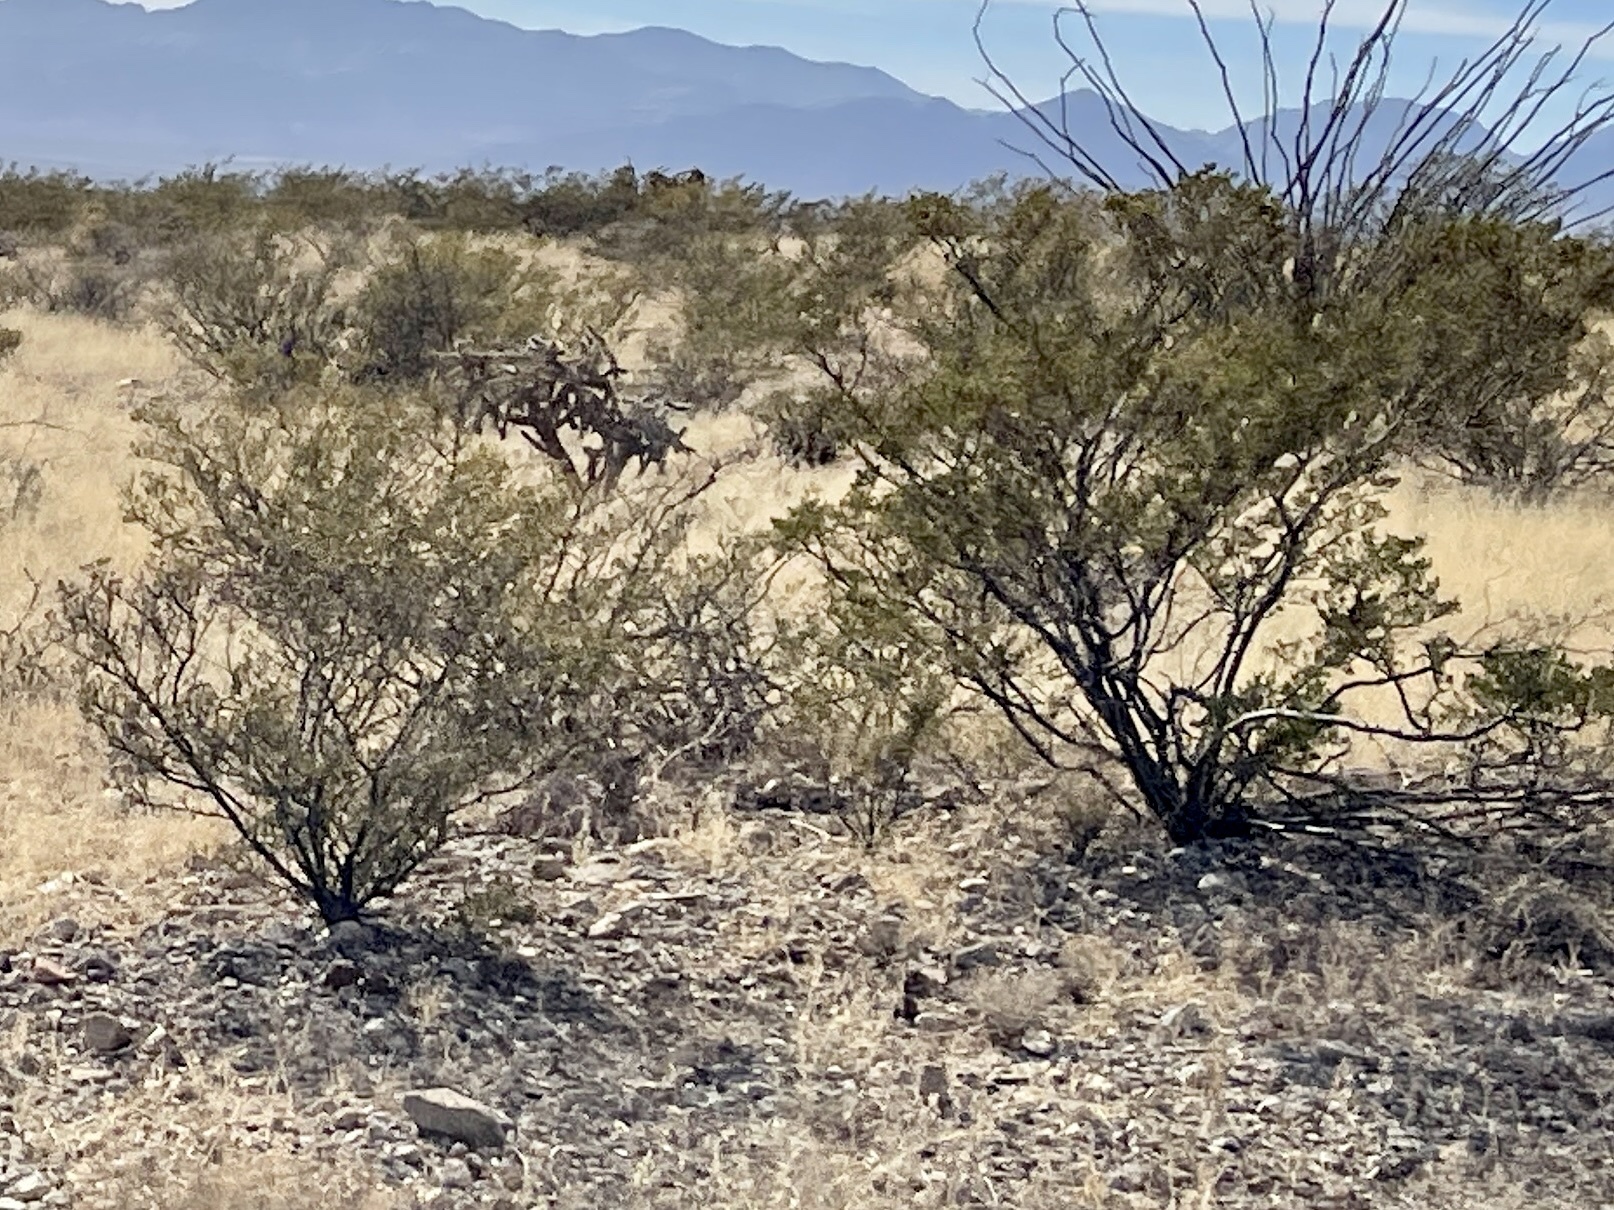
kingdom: Plantae
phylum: Tracheophyta
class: Magnoliopsida
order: Zygophyllales
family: Zygophyllaceae
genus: Larrea
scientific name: Larrea tridentata
